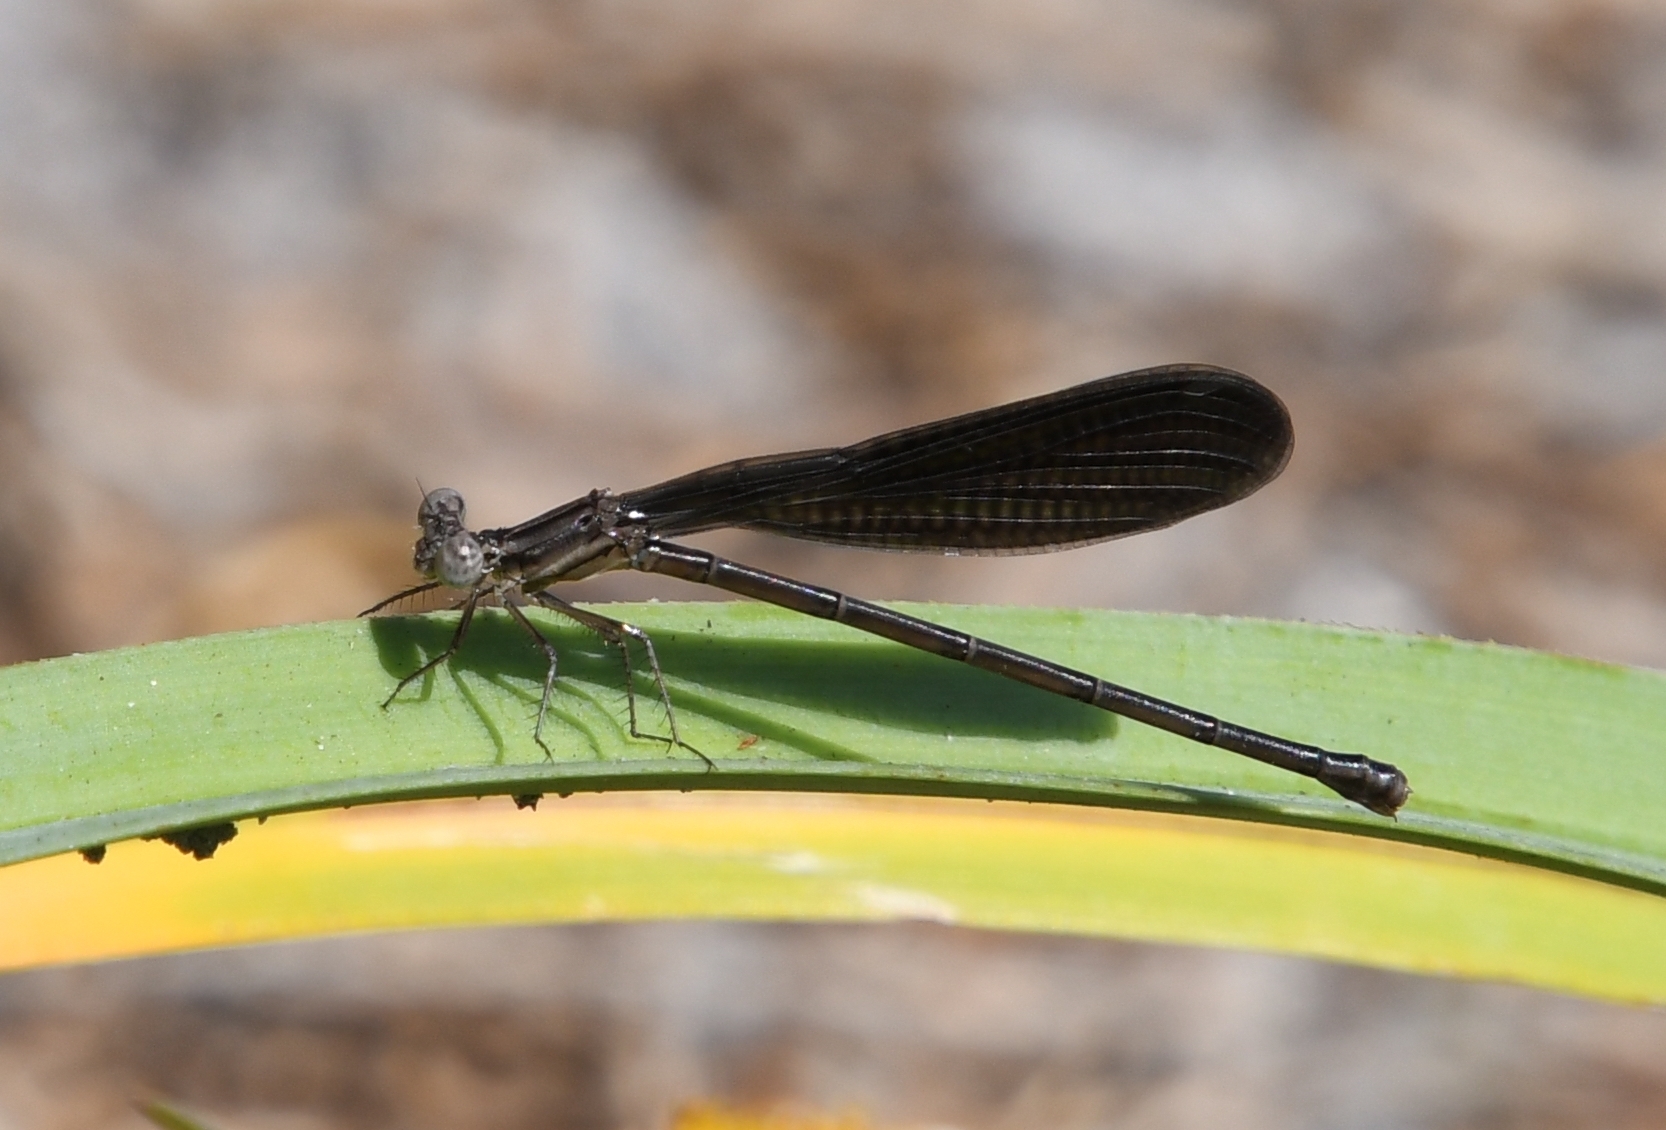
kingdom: Animalia
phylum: Arthropoda
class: Insecta
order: Odonata
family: Coenagrionidae
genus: Argia
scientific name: Argia fumipennis
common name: Variable dancer
